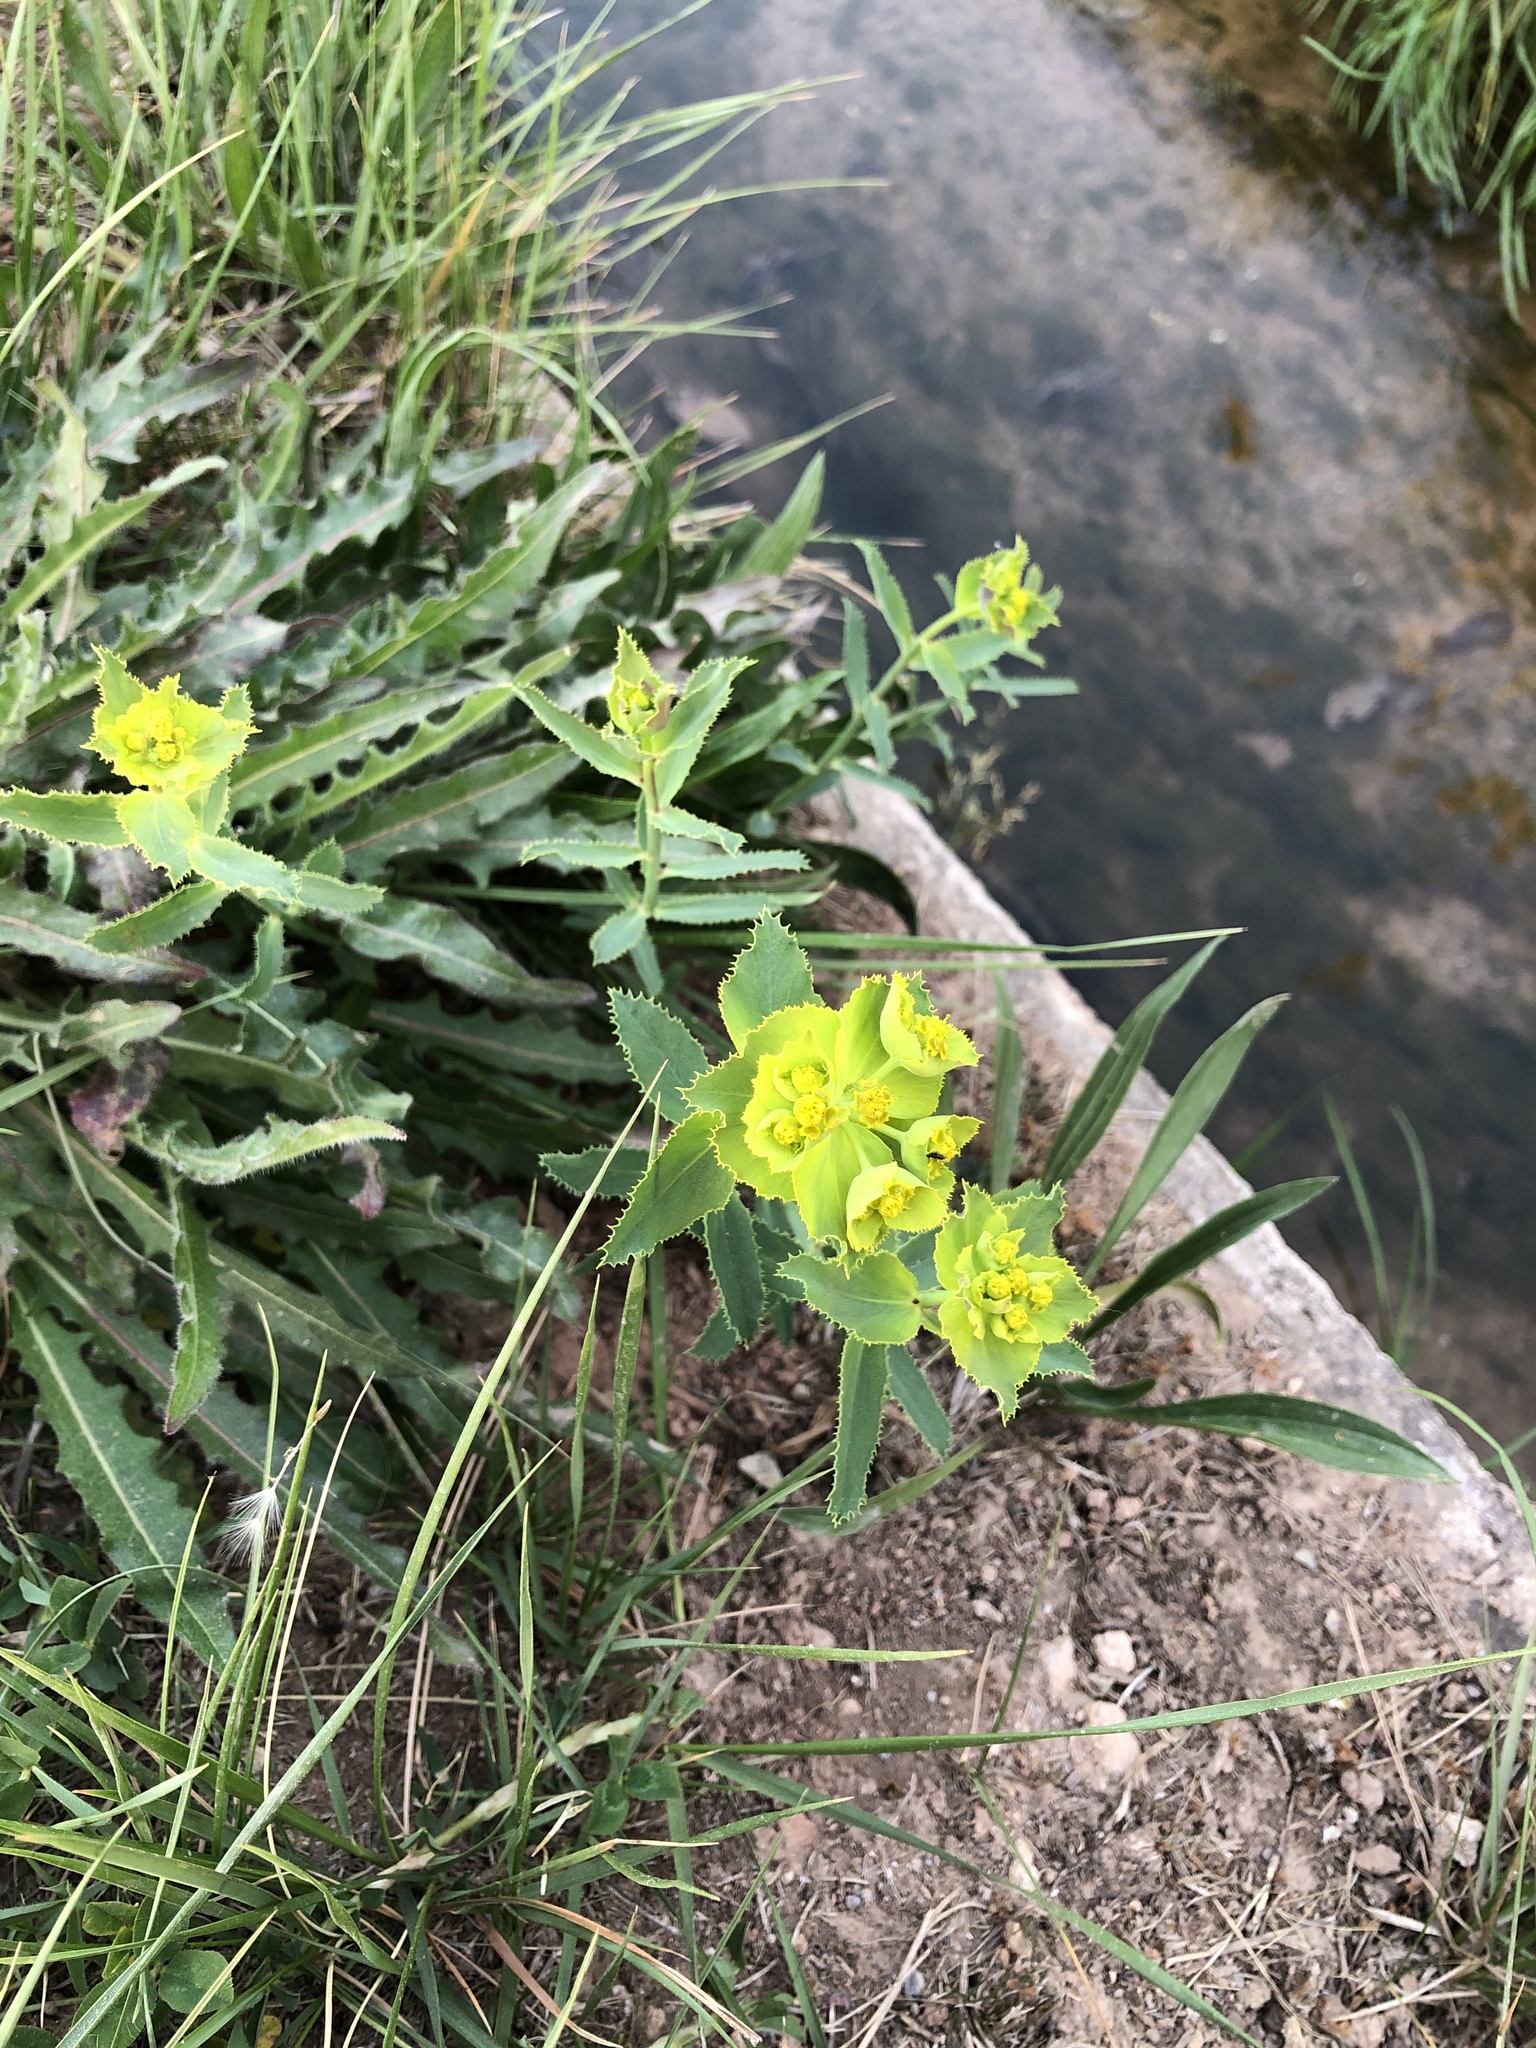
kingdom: Plantae
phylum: Tracheophyta
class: Magnoliopsida
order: Malpighiales
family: Euphorbiaceae
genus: Euphorbia
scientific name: Euphorbia serrata
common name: Serrate spurge
